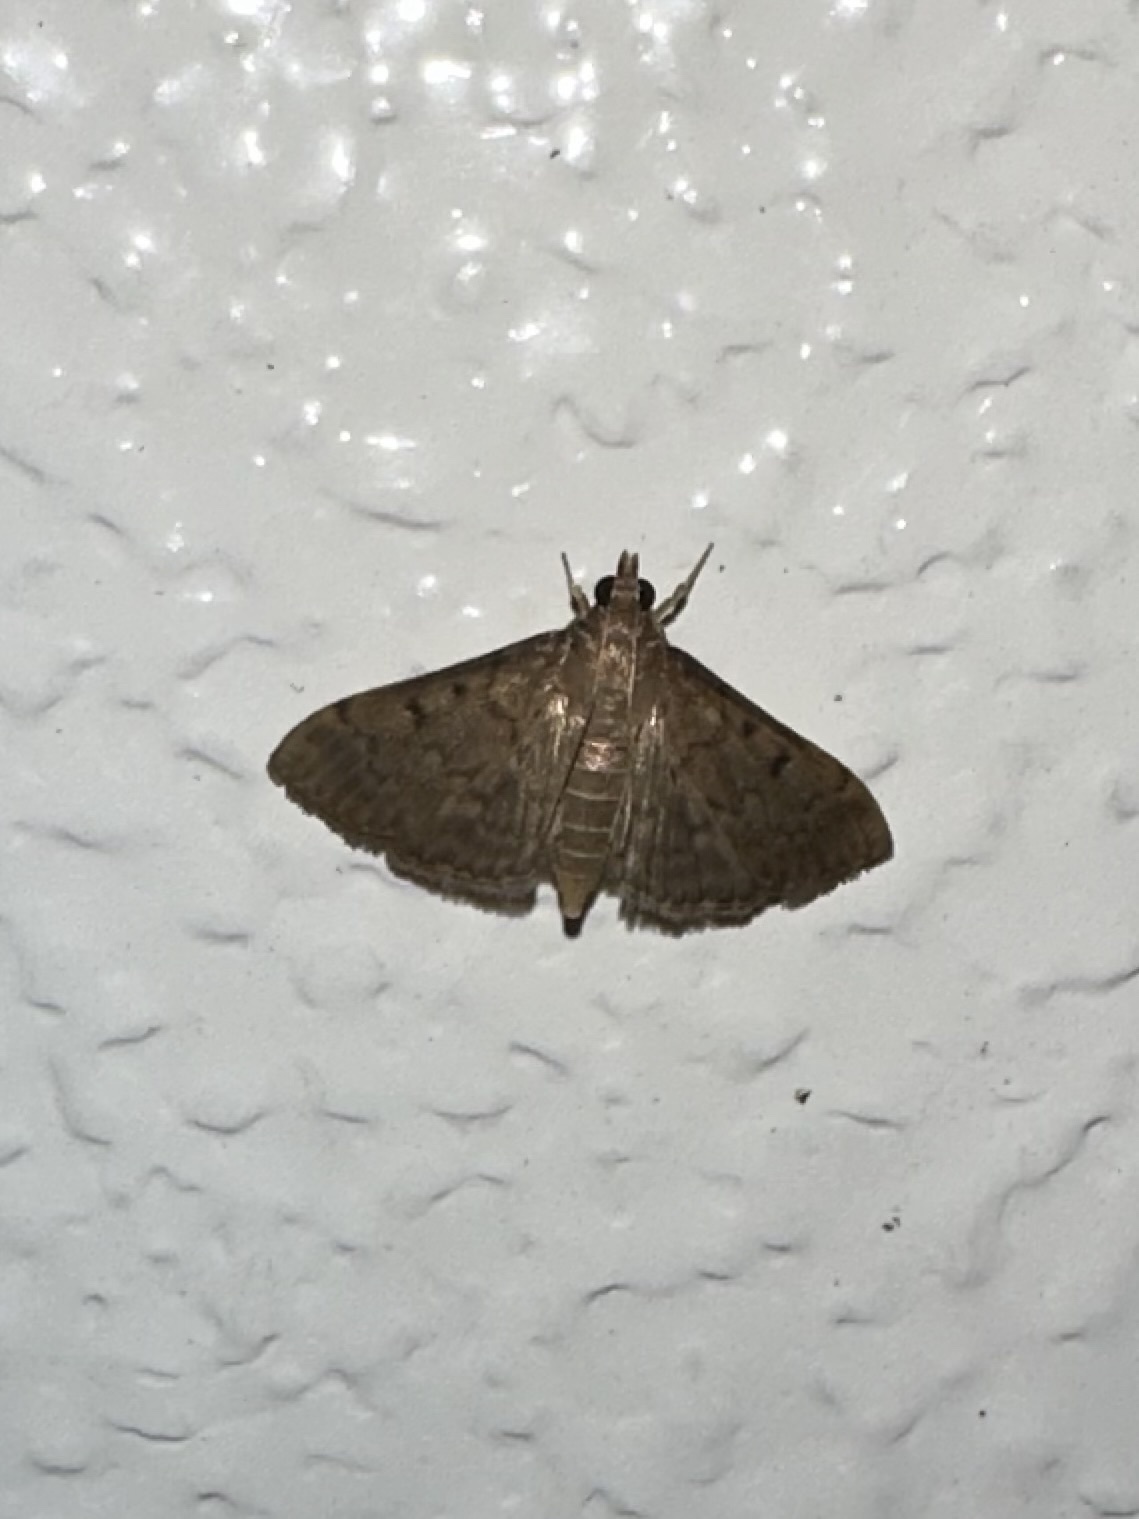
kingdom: Animalia
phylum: Arthropoda
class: Insecta
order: Lepidoptera
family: Crambidae
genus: Herpetogramma
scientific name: Herpetogramma phaeopteralis
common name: Dusky herpetogramma moth
